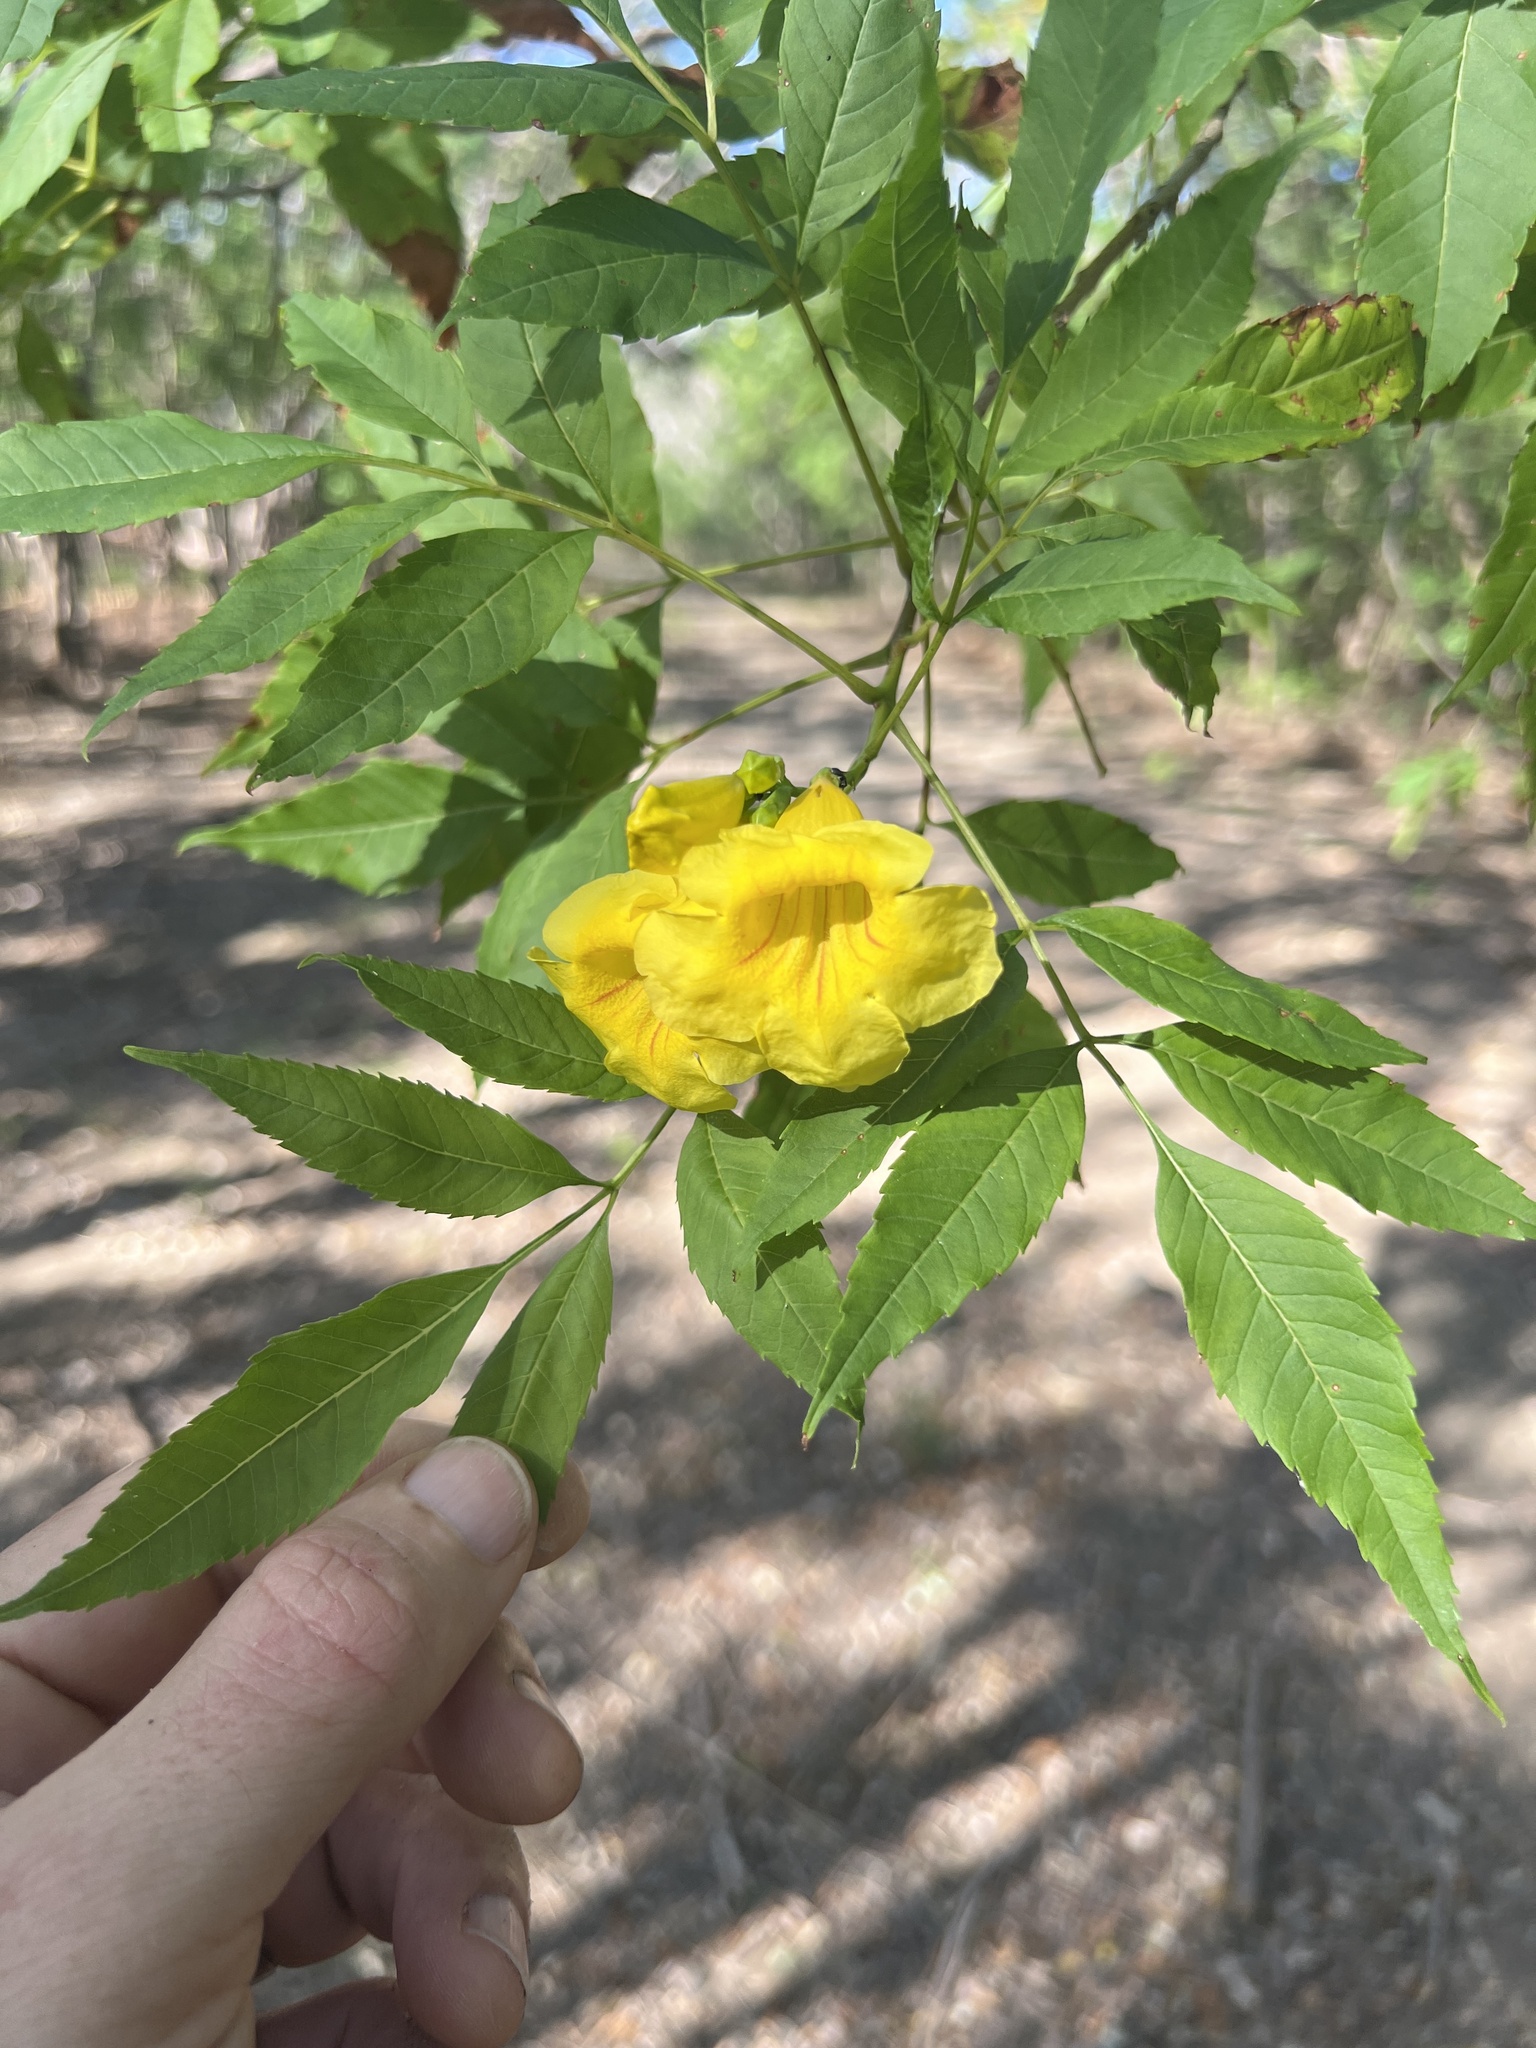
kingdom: Plantae
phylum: Tracheophyta
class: Magnoliopsida
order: Lamiales
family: Bignoniaceae
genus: Tecoma
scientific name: Tecoma stans
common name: Yellow trumpetbush
